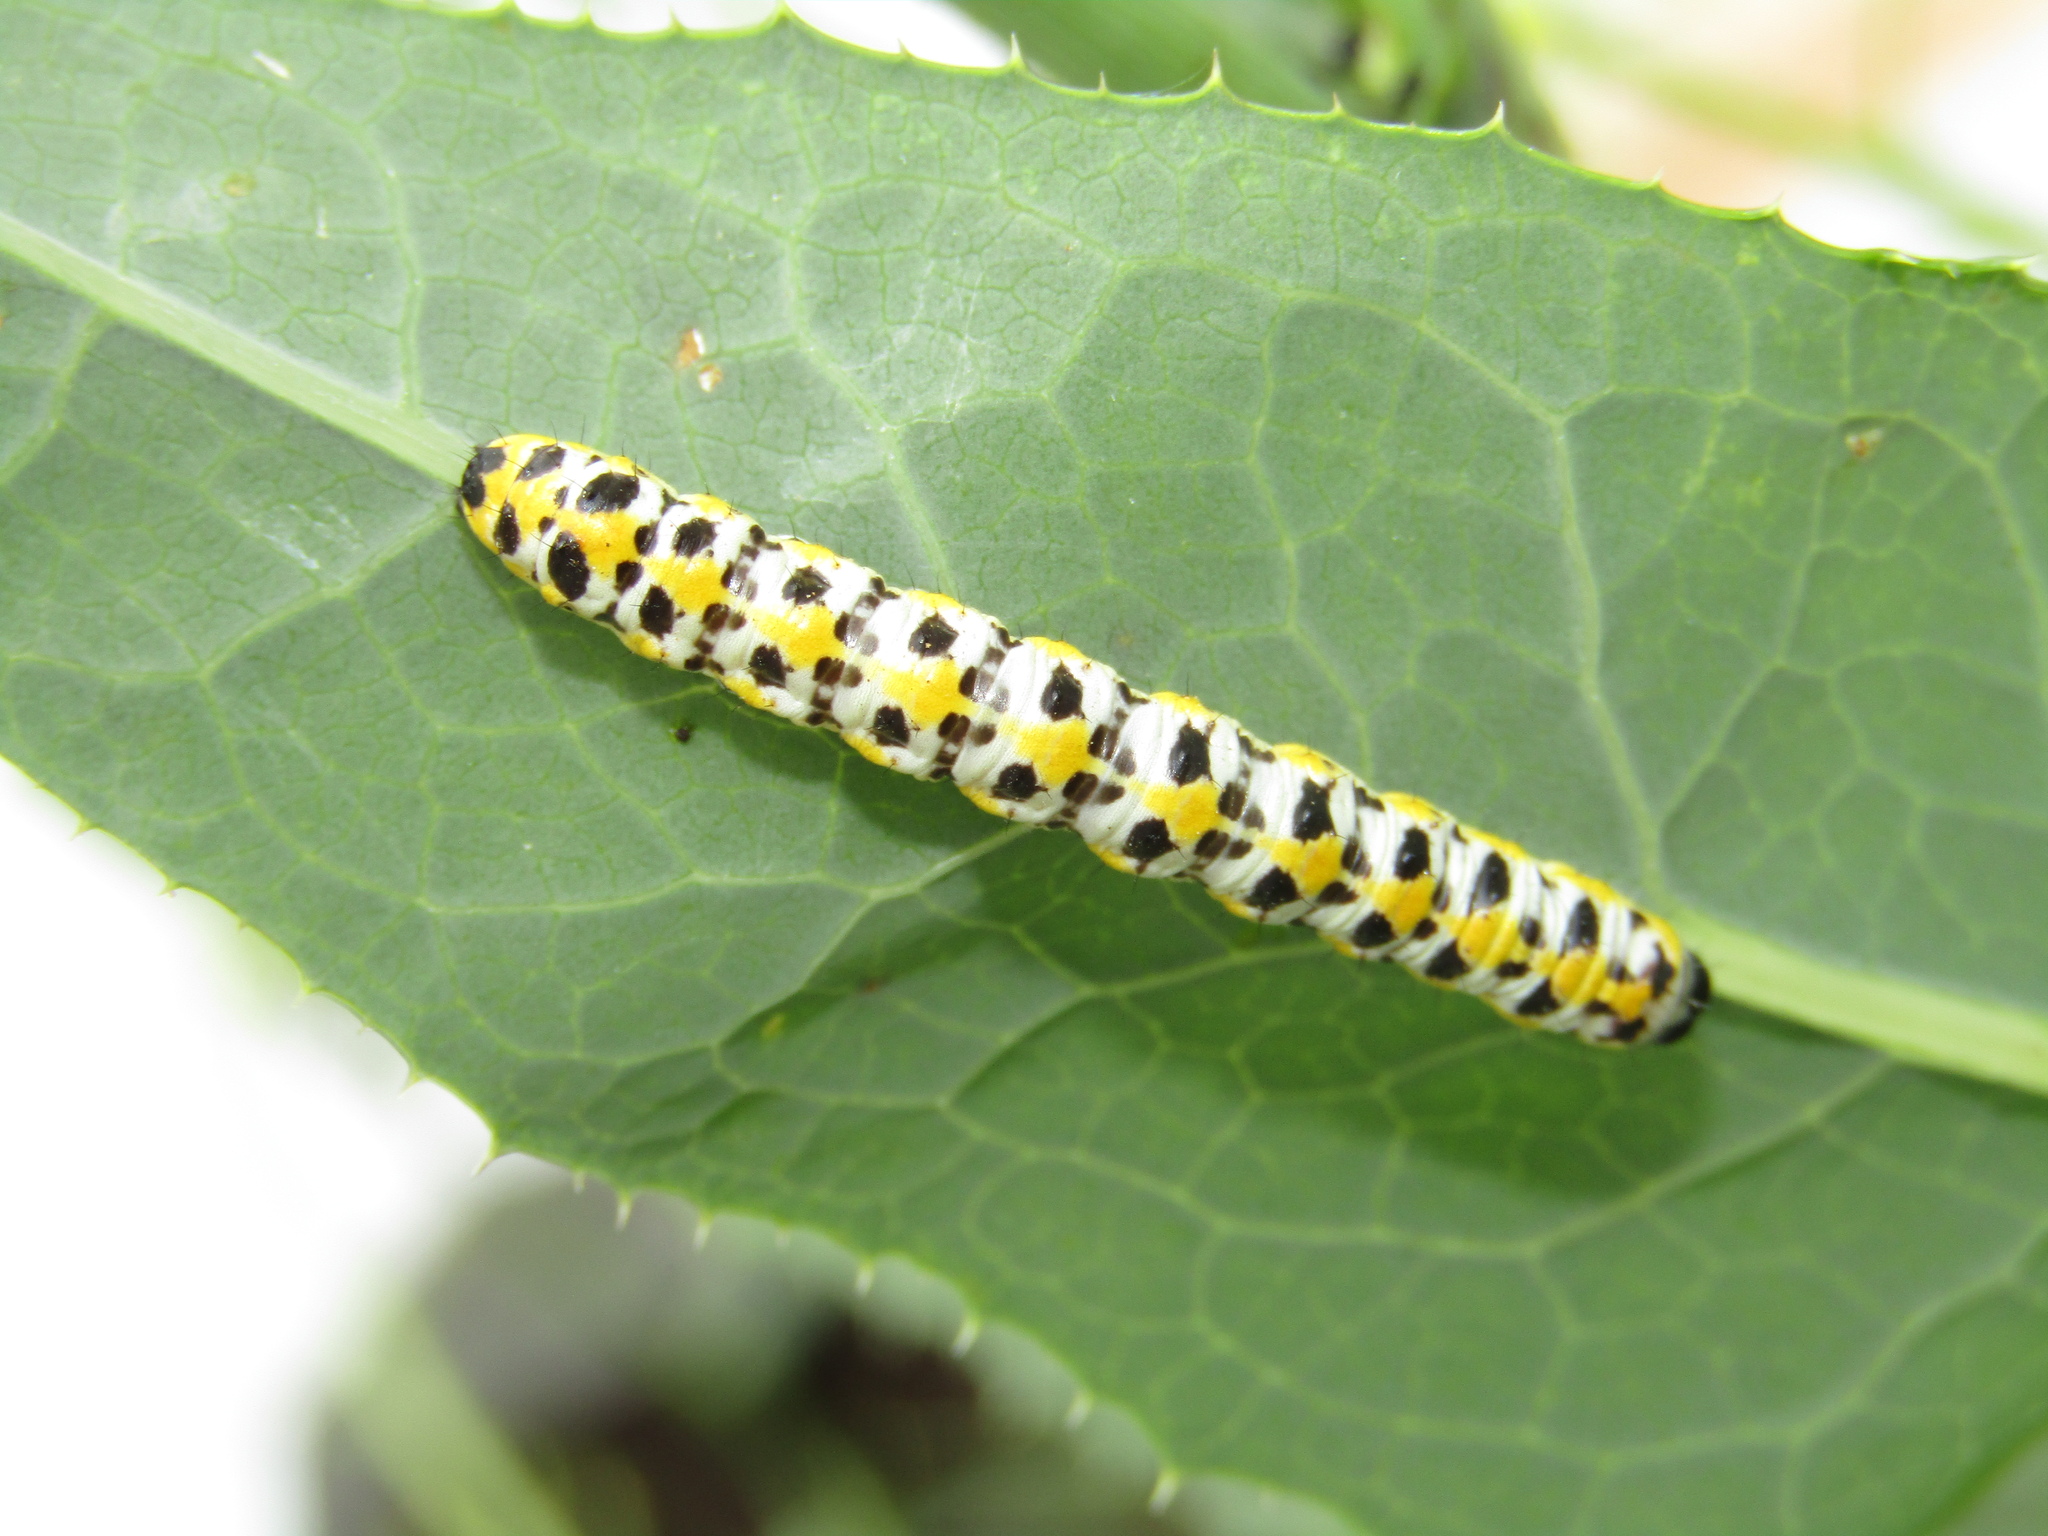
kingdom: Animalia
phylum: Arthropoda
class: Insecta
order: Lepidoptera
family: Noctuidae
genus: Cucullia
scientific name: Cucullia pustulata
